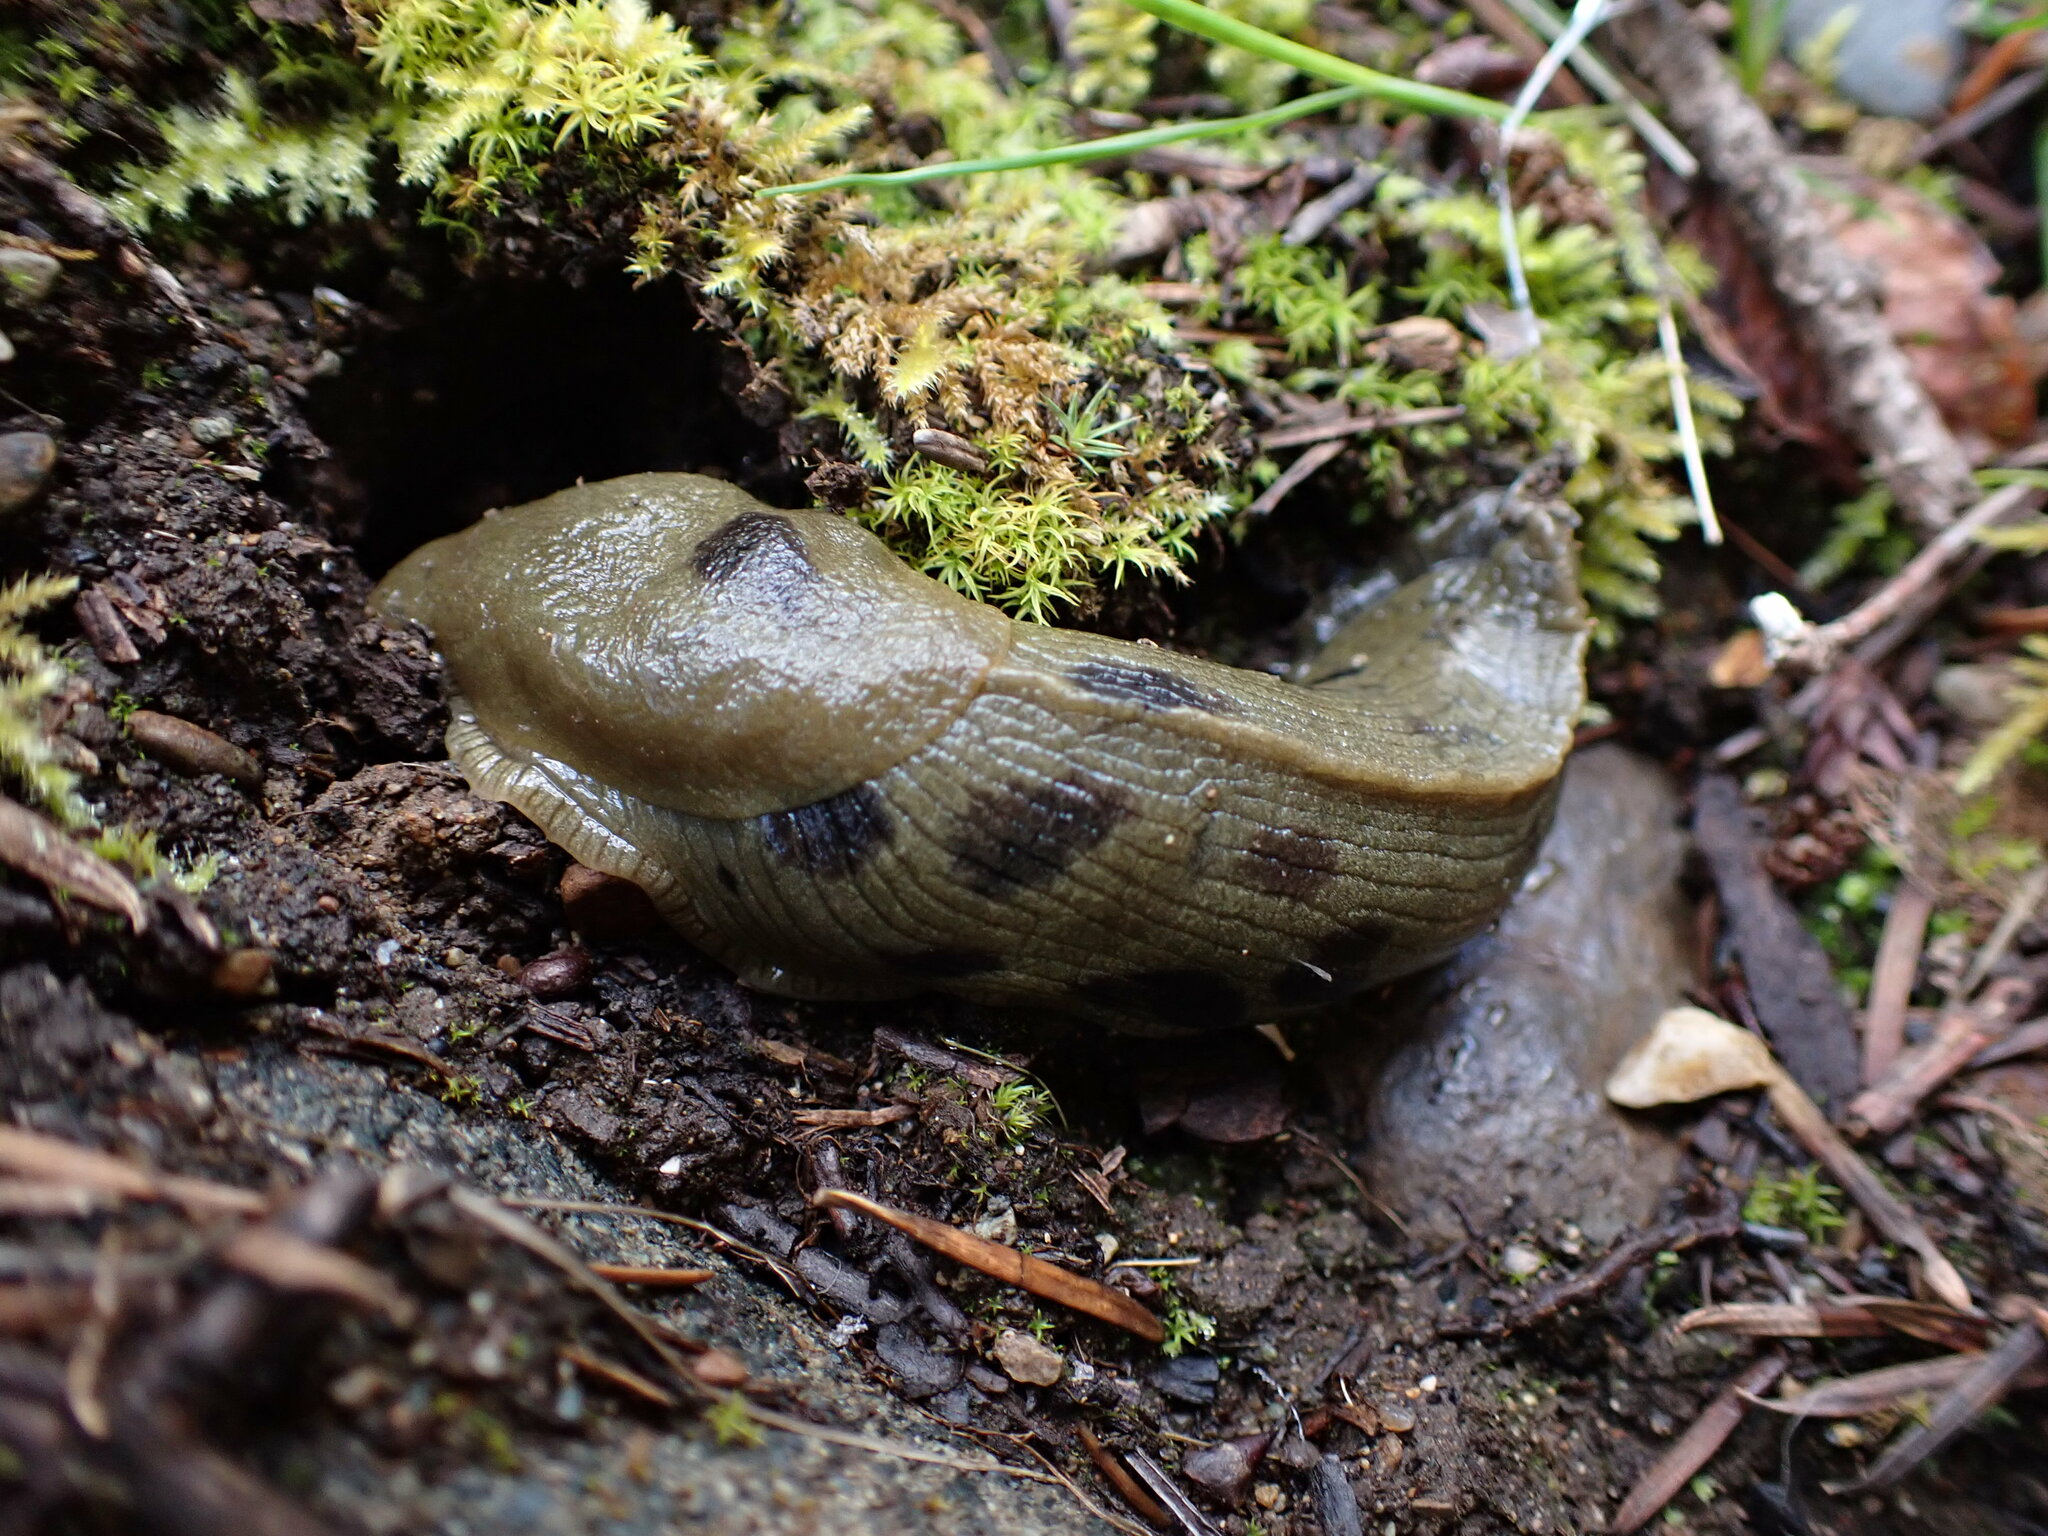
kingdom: Animalia
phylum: Mollusca
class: Gastropoda
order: Stylommatophora
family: Ariolimacidae
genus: Ariolimax
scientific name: Ariolimax columbianus
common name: Pacific banana slug
